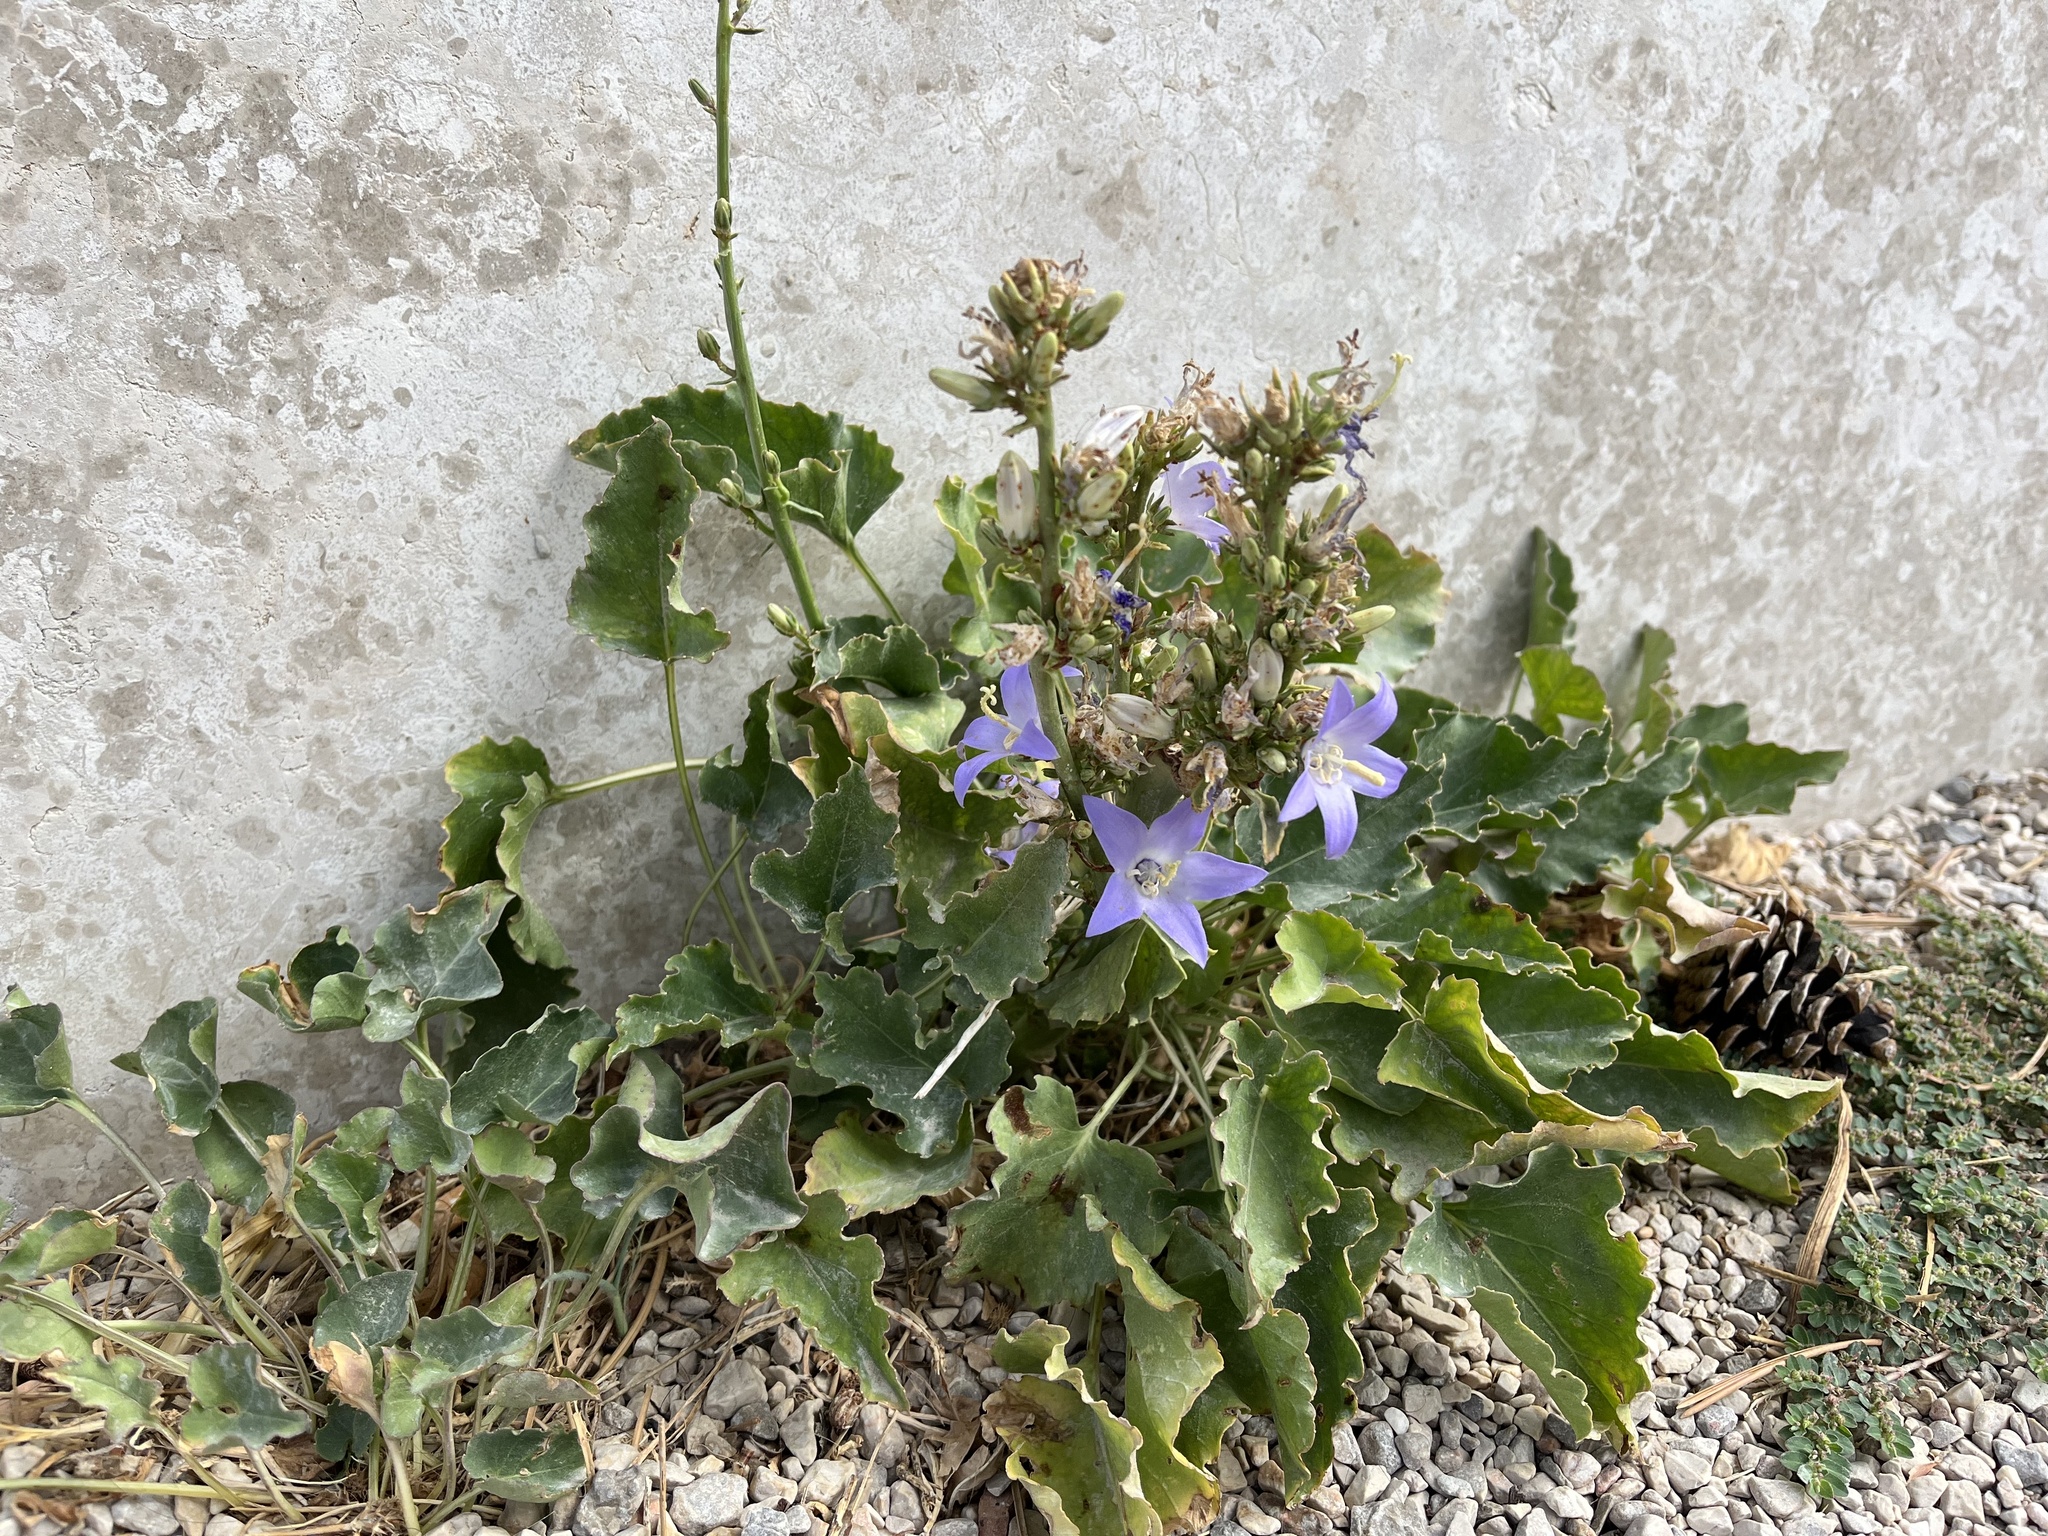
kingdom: Plantae
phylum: Tracheophyta
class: Magnoliopsida
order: Asterales
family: Campanulaceae
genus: Campanula
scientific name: Campanula pyramidalis
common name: Chimney bellflower
